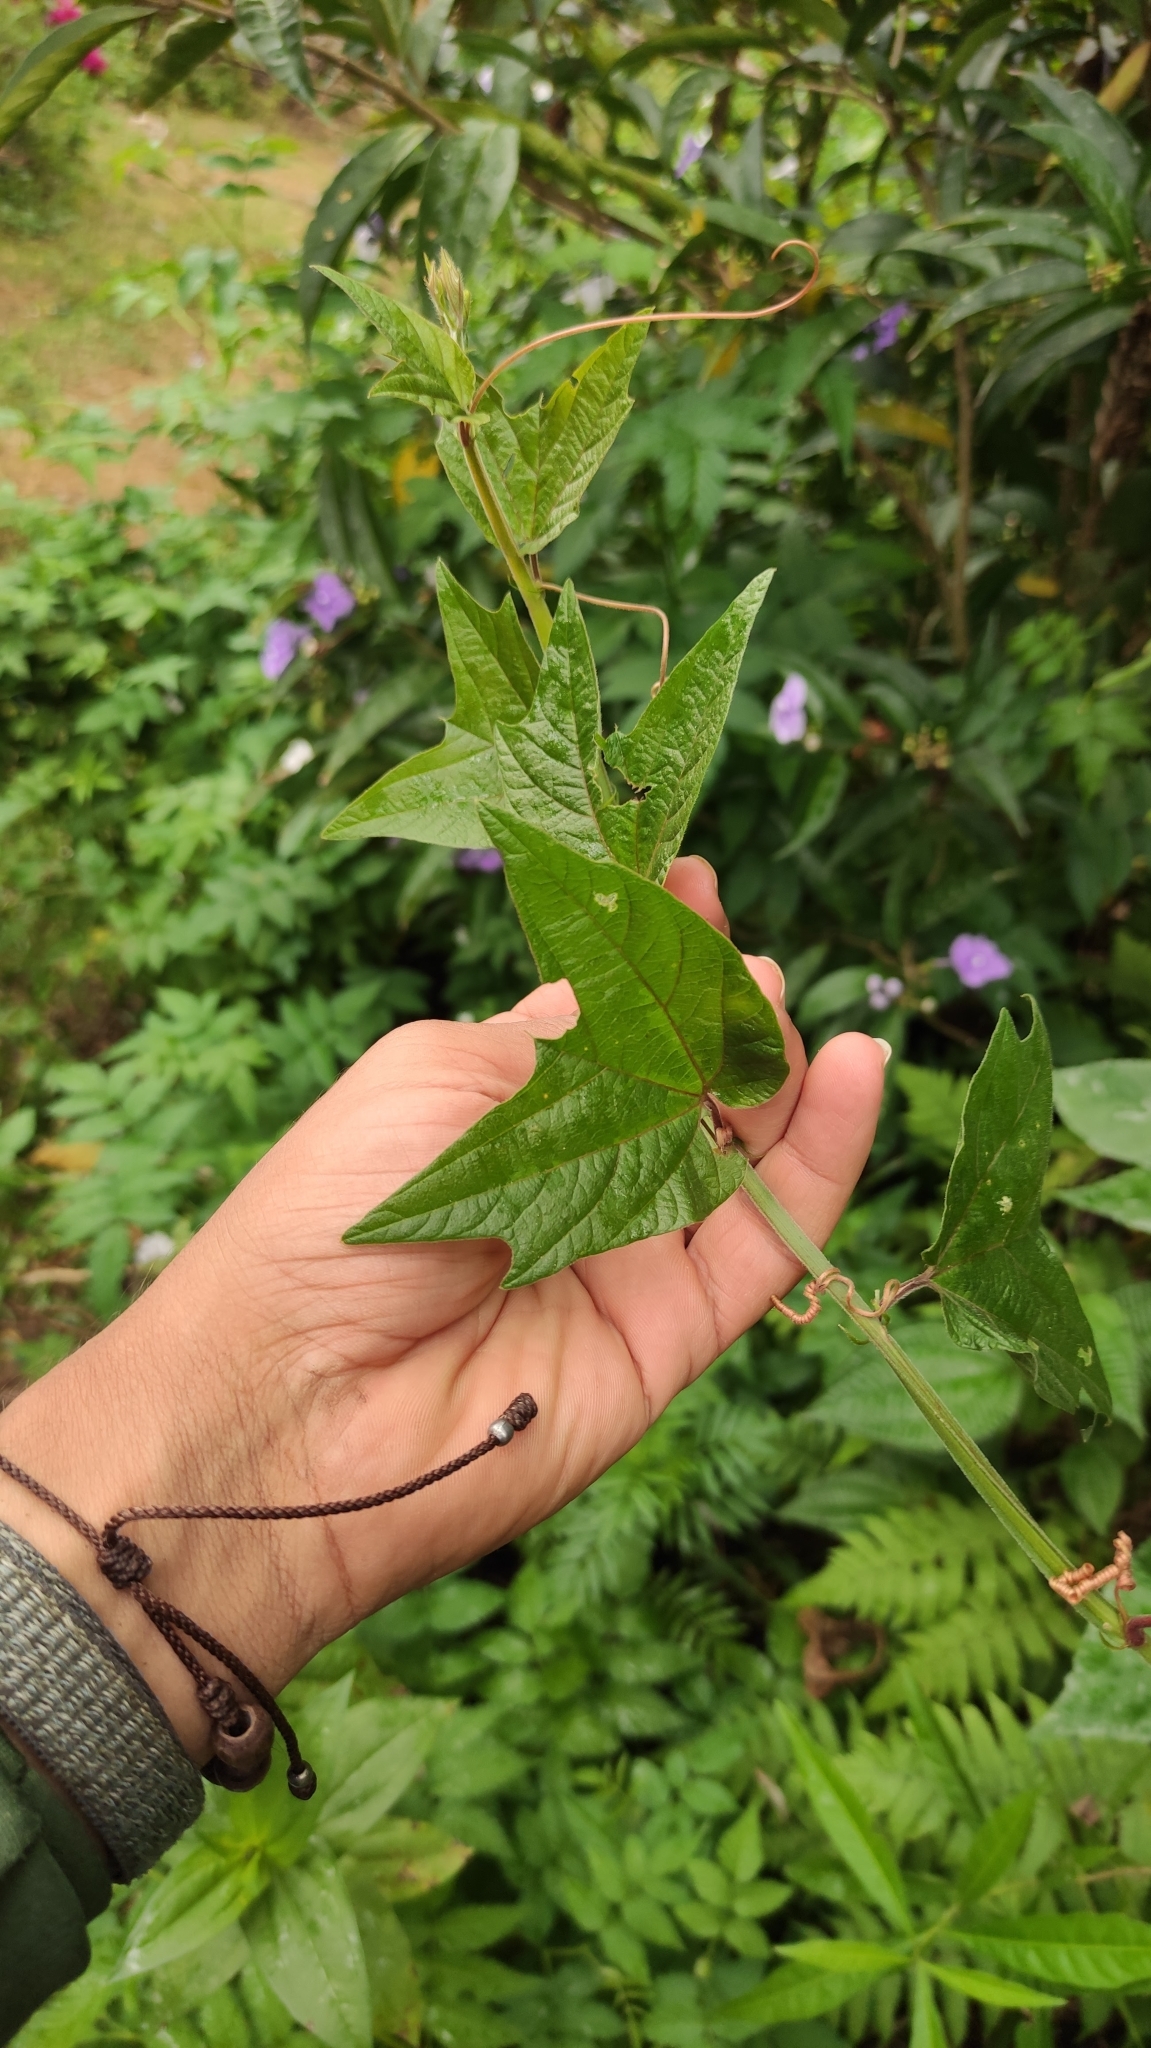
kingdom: Plantae
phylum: Tracheophyta
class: Magnoliopsida
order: Malpighiales
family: Passifloraceae
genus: Passiflora
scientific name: Passiflora capsularis
